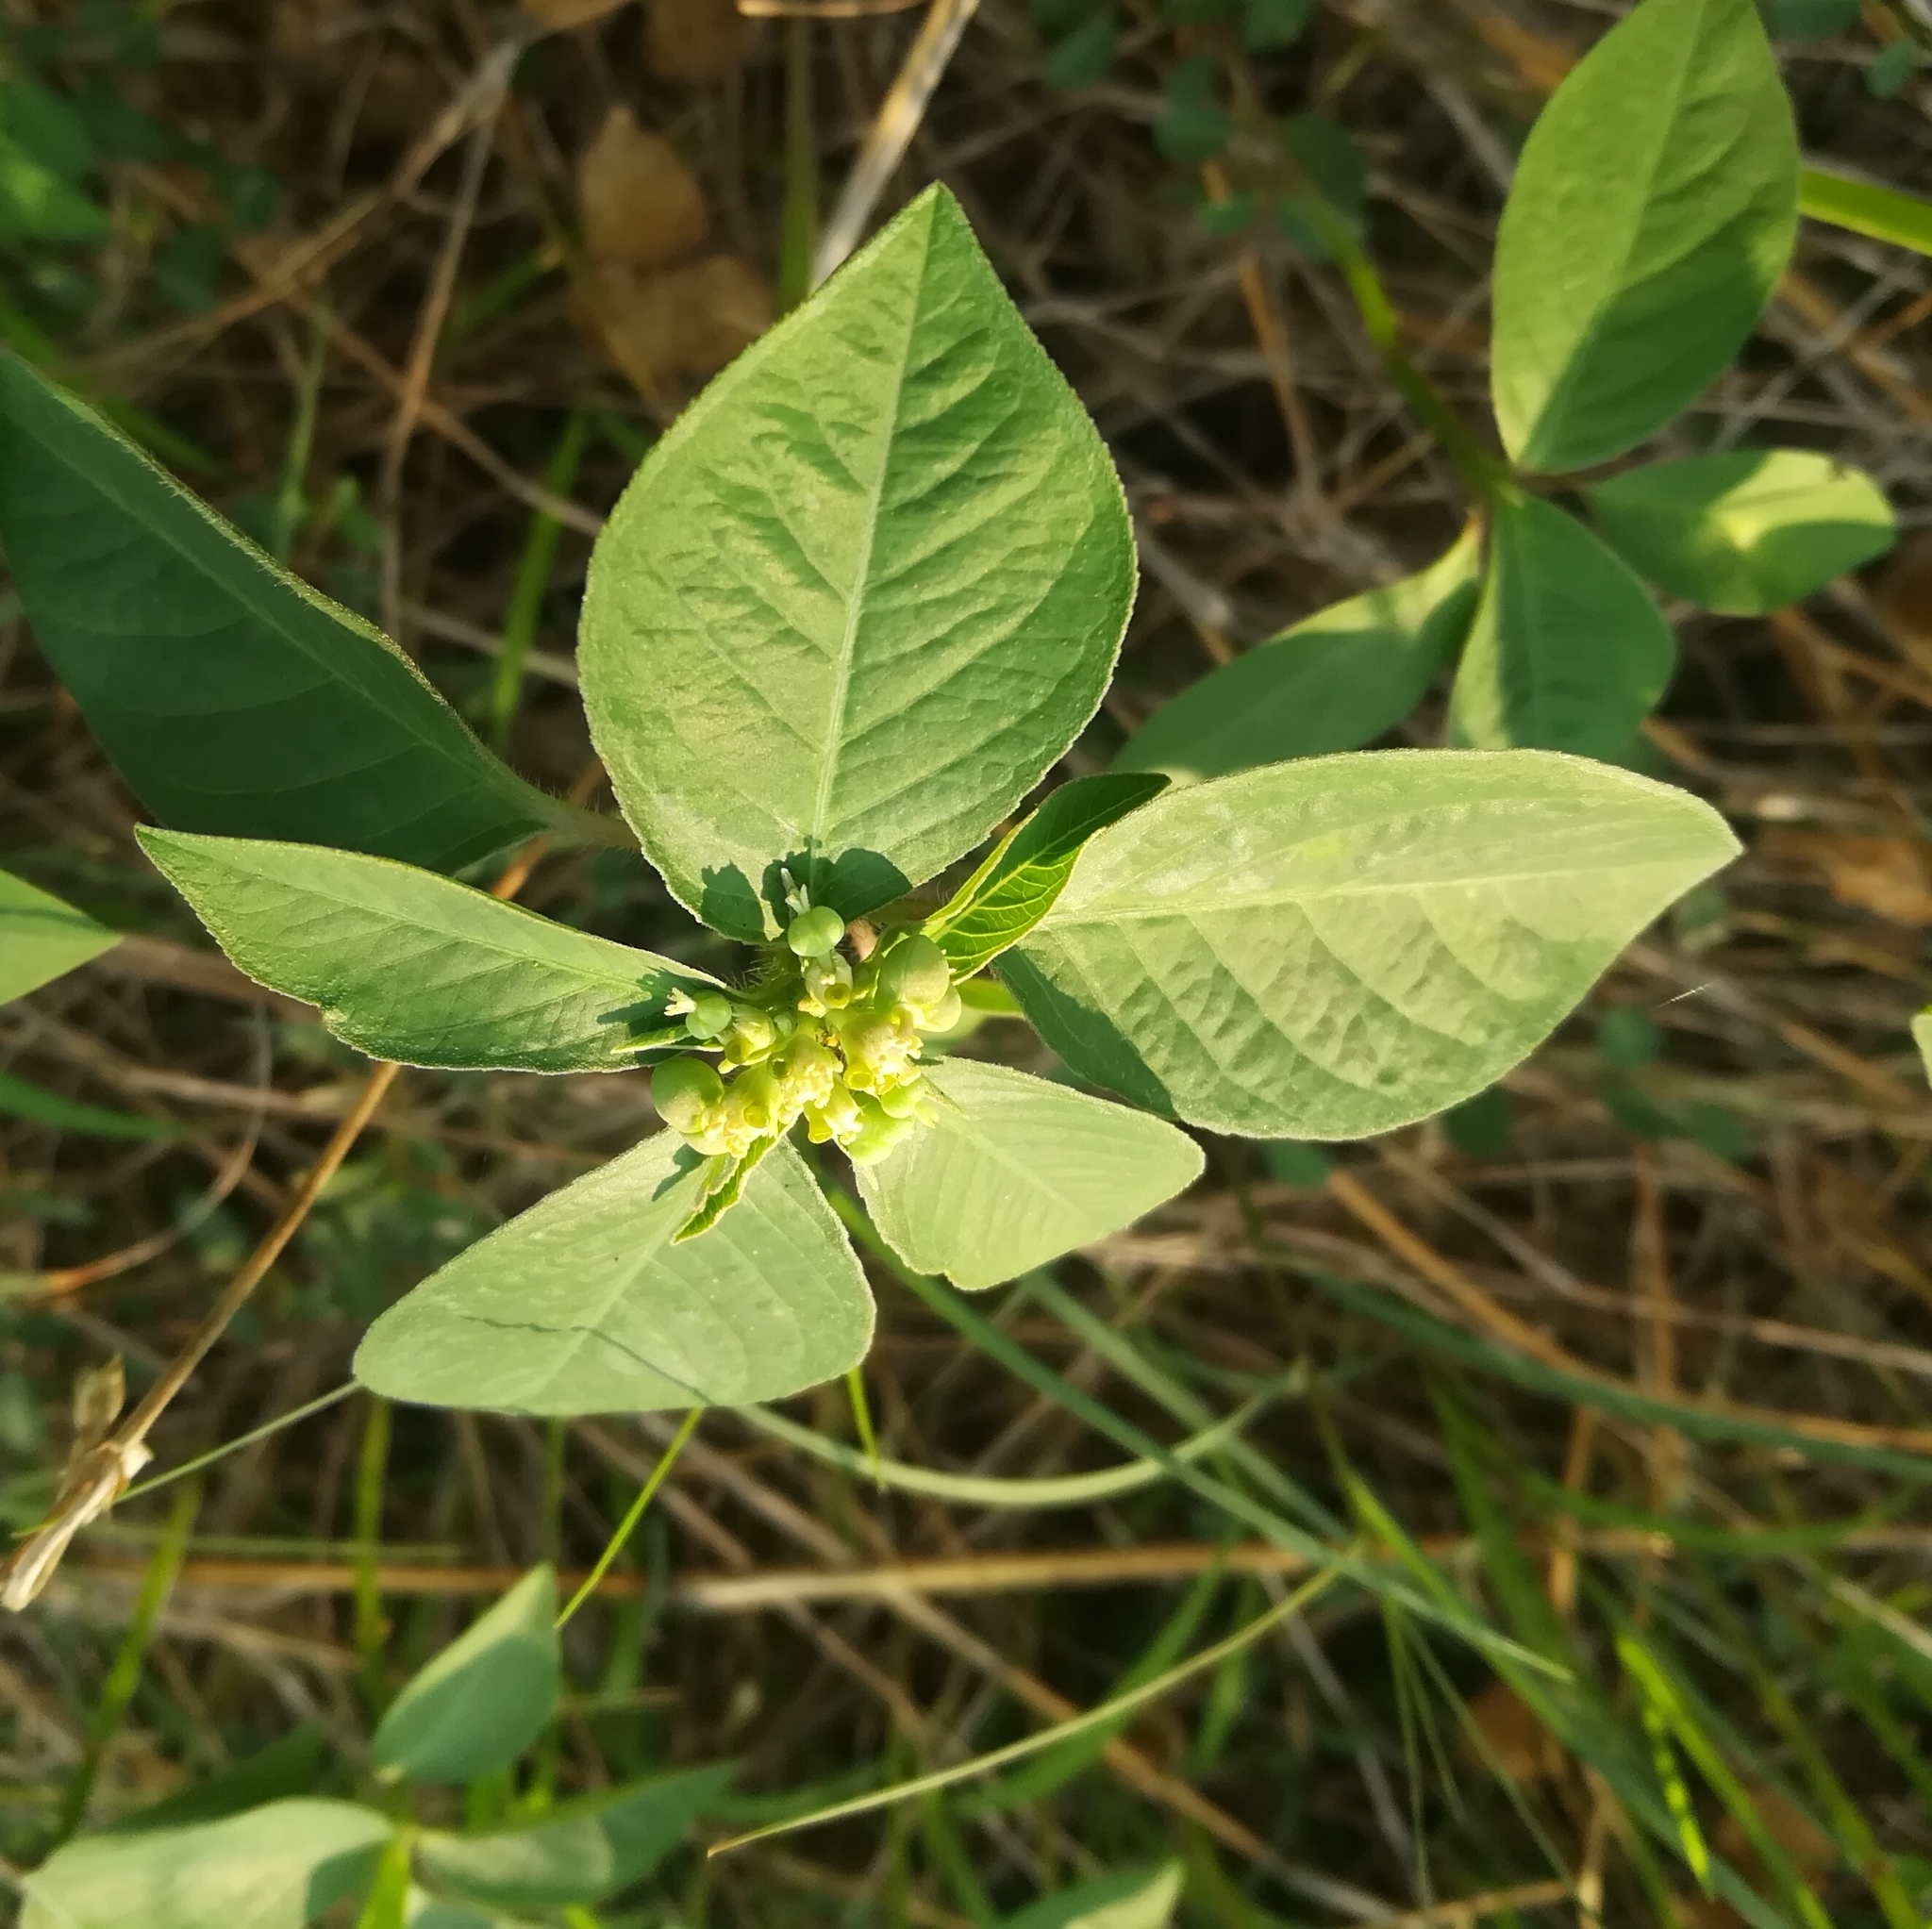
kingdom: Plantae
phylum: Tracheophyta
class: Magnoliopsida
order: Malpighiales
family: Euphorbiaceae
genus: Euphorbia
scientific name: Euphorbia heterophylla
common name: Mexican fireplant
